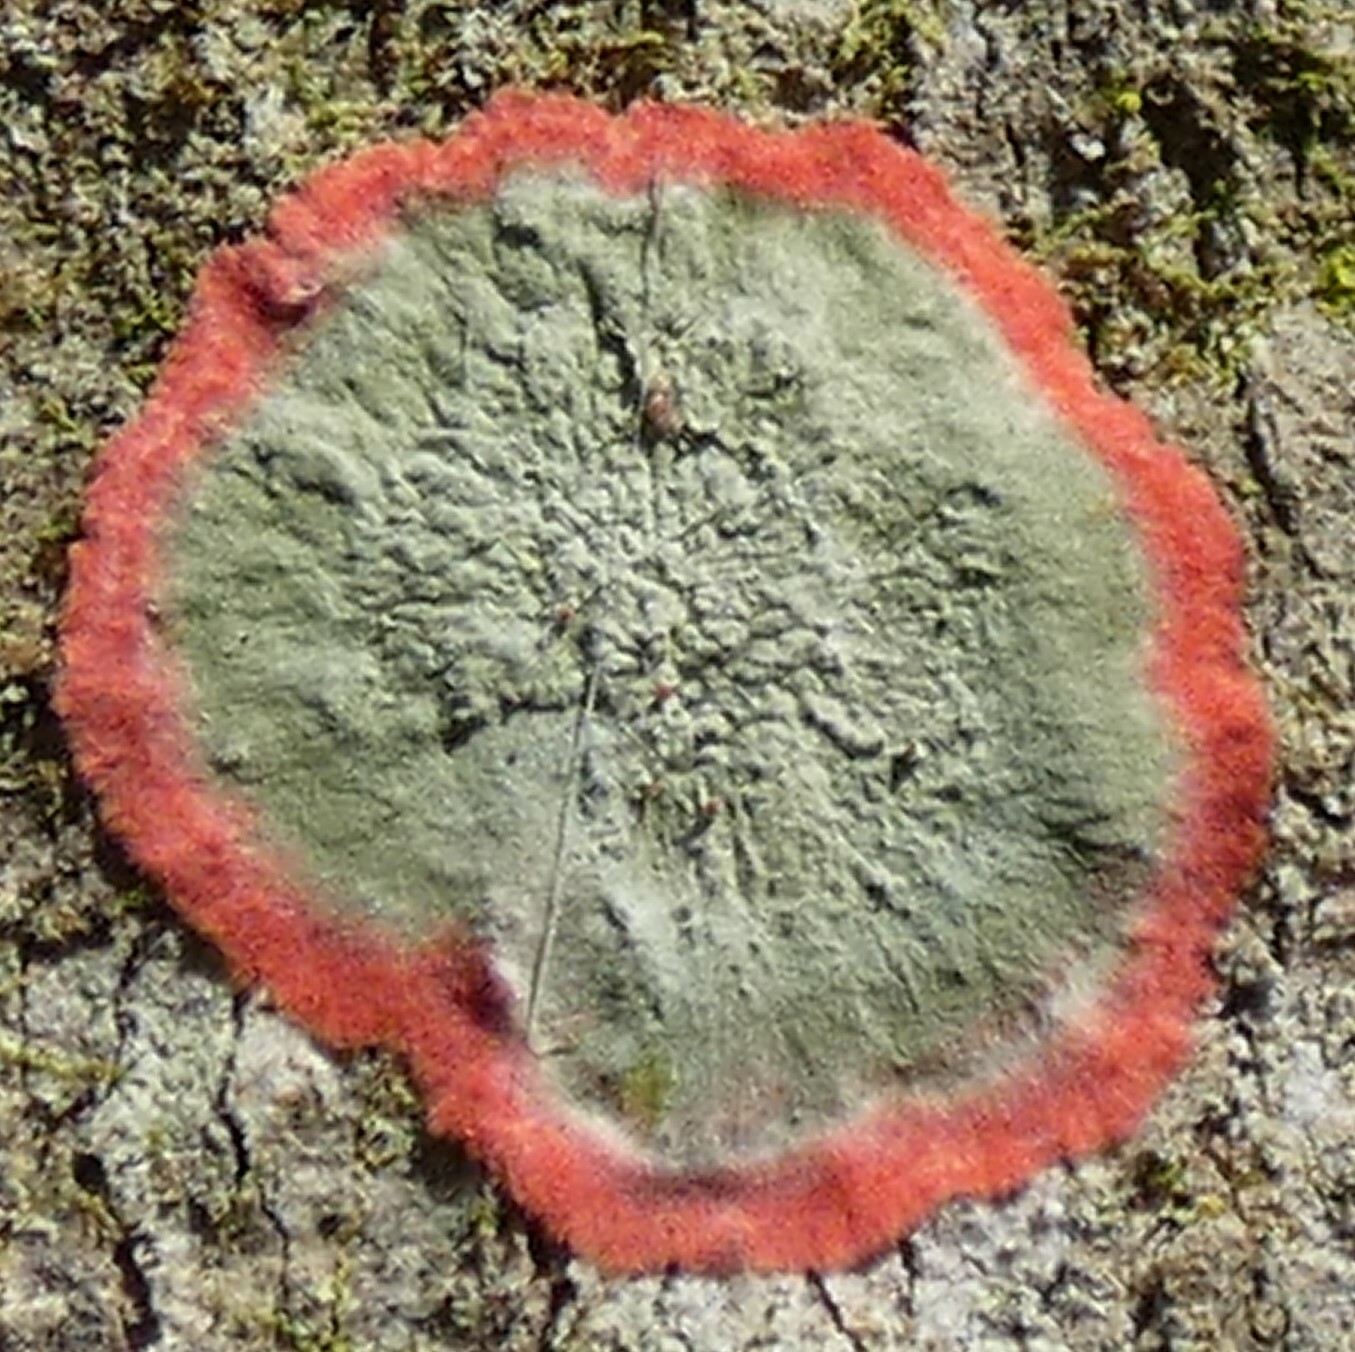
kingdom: Fungi
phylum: Ascomycota
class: Arthoniomycetes
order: Arthoniales
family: Arthoniaceae
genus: Herpothallon
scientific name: Herpothallon rubrocinctum
